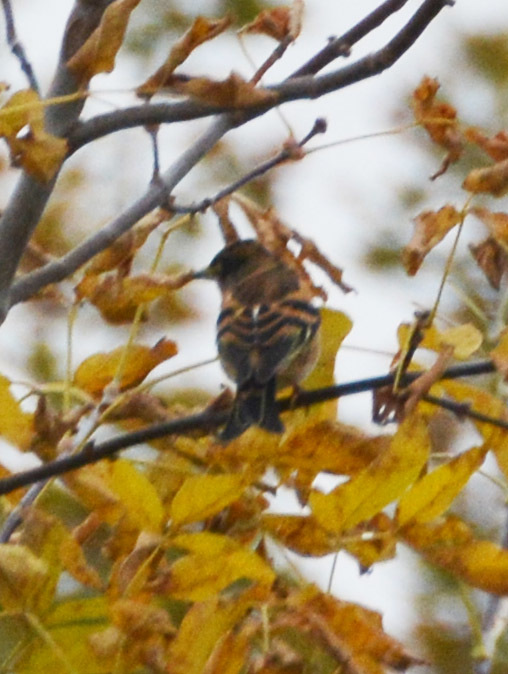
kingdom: Animalia
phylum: Chordata
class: Aves
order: Passeriformes
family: Fringillidae
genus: Fringilla
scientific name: Fringilla montifringilla
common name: Brambling
